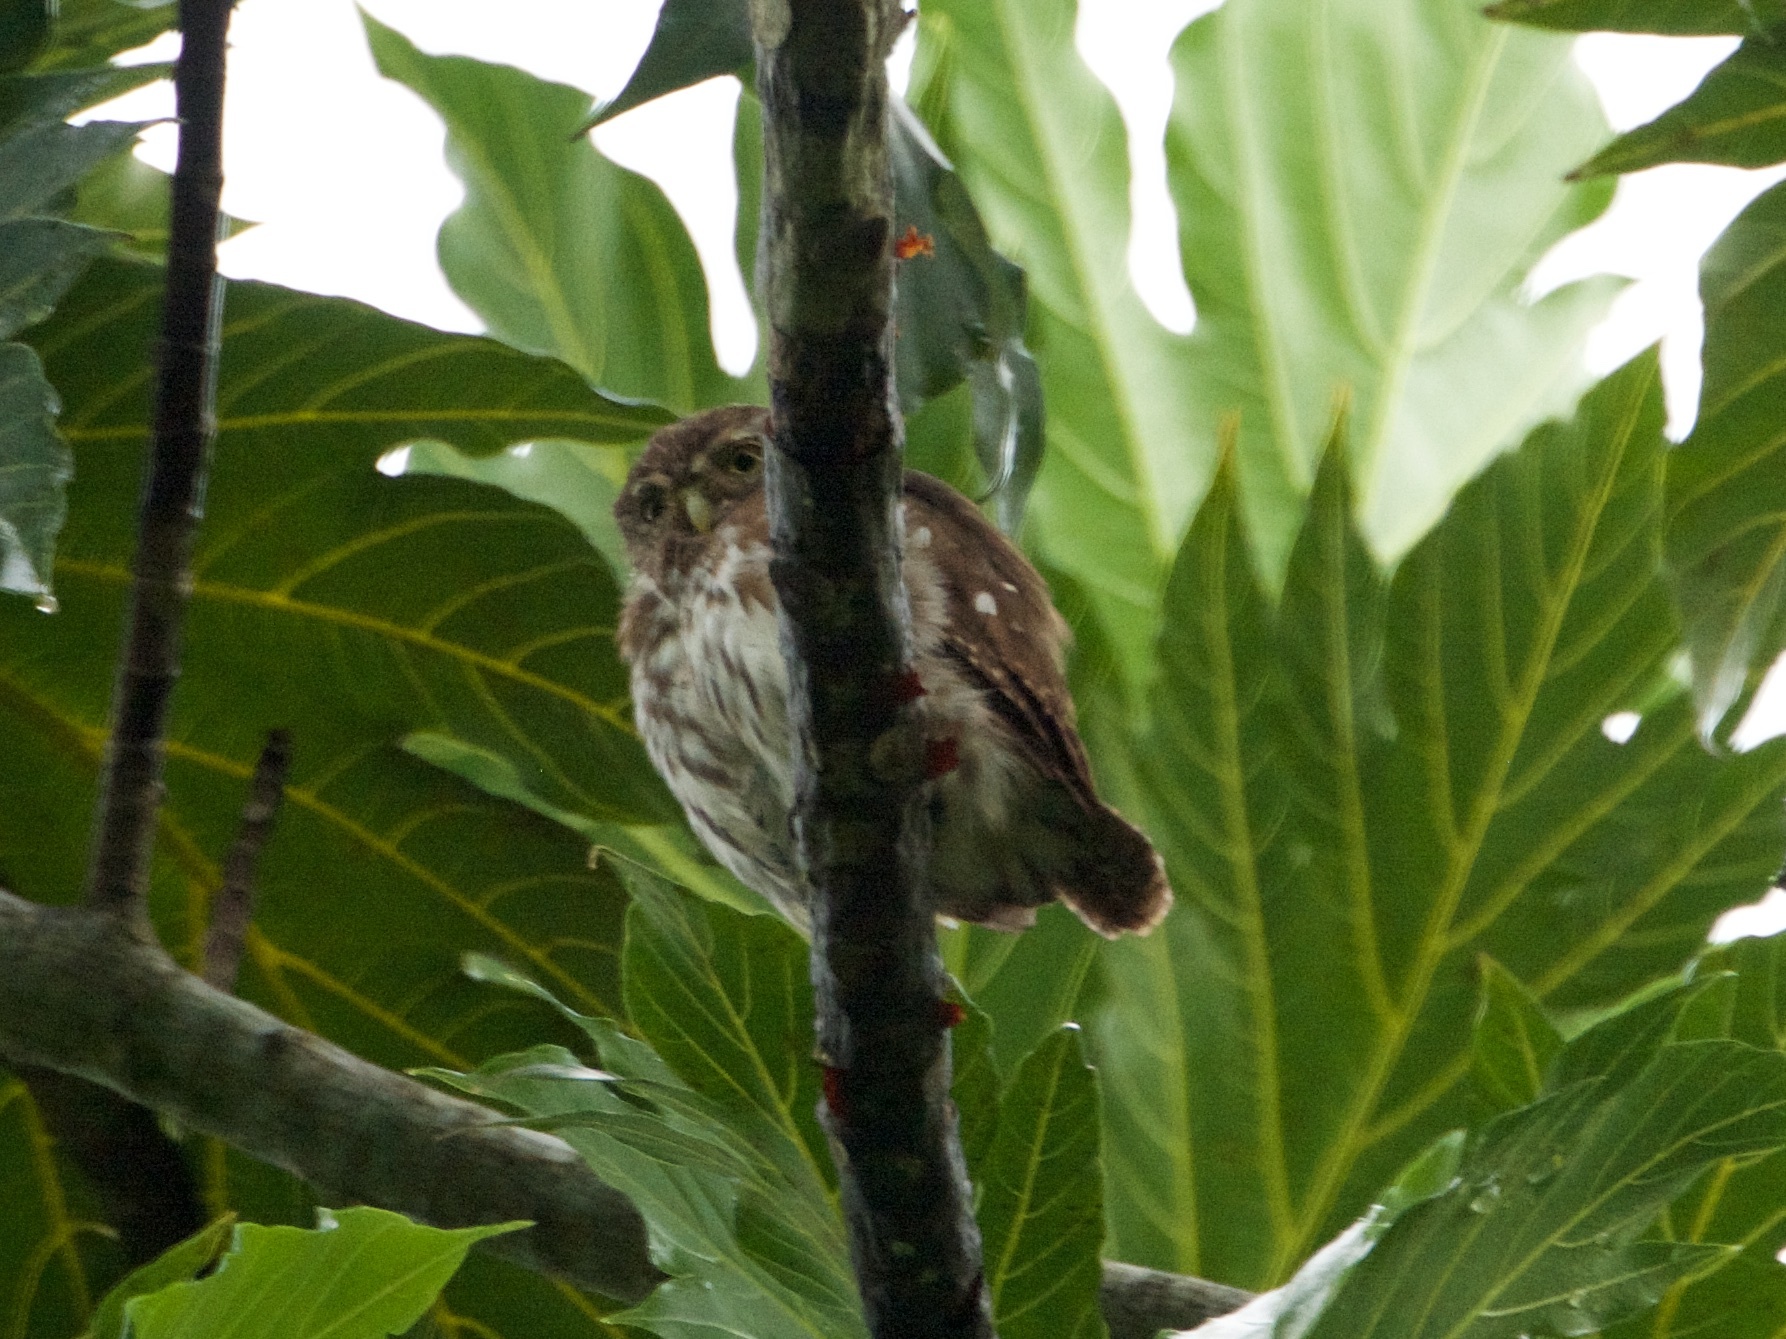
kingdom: Animalia
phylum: Chordata
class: Aves
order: Strigiformes
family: Strigidae
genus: Glaucidium
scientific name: Glaucidium brasilianum
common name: Ferruginous pygmy-owl
